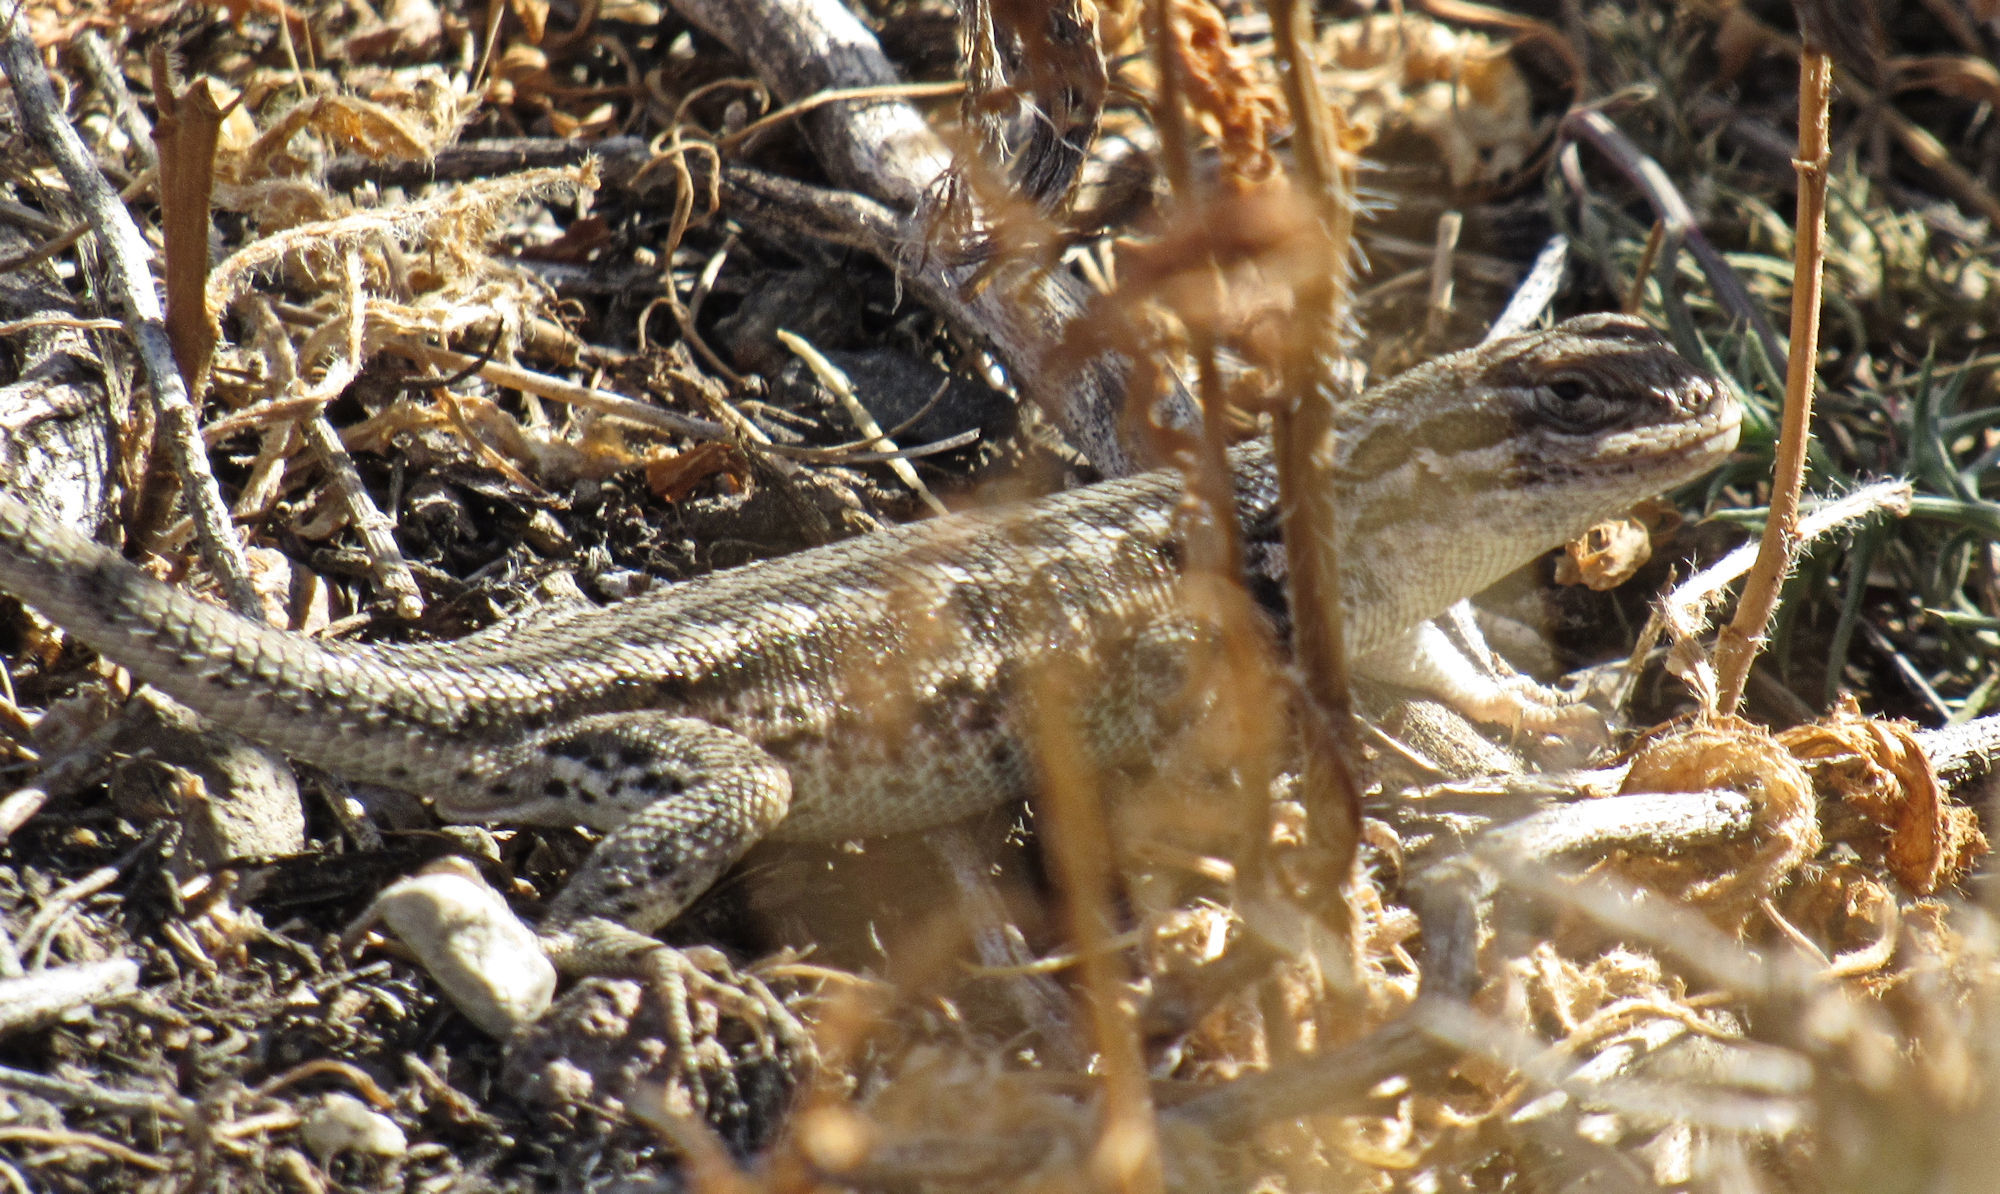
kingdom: Animalia
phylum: Chordata
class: Squamata
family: Phrynosomatidae
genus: Sceloporus
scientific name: Sceloporus graciosus
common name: Sagebrush lizard
